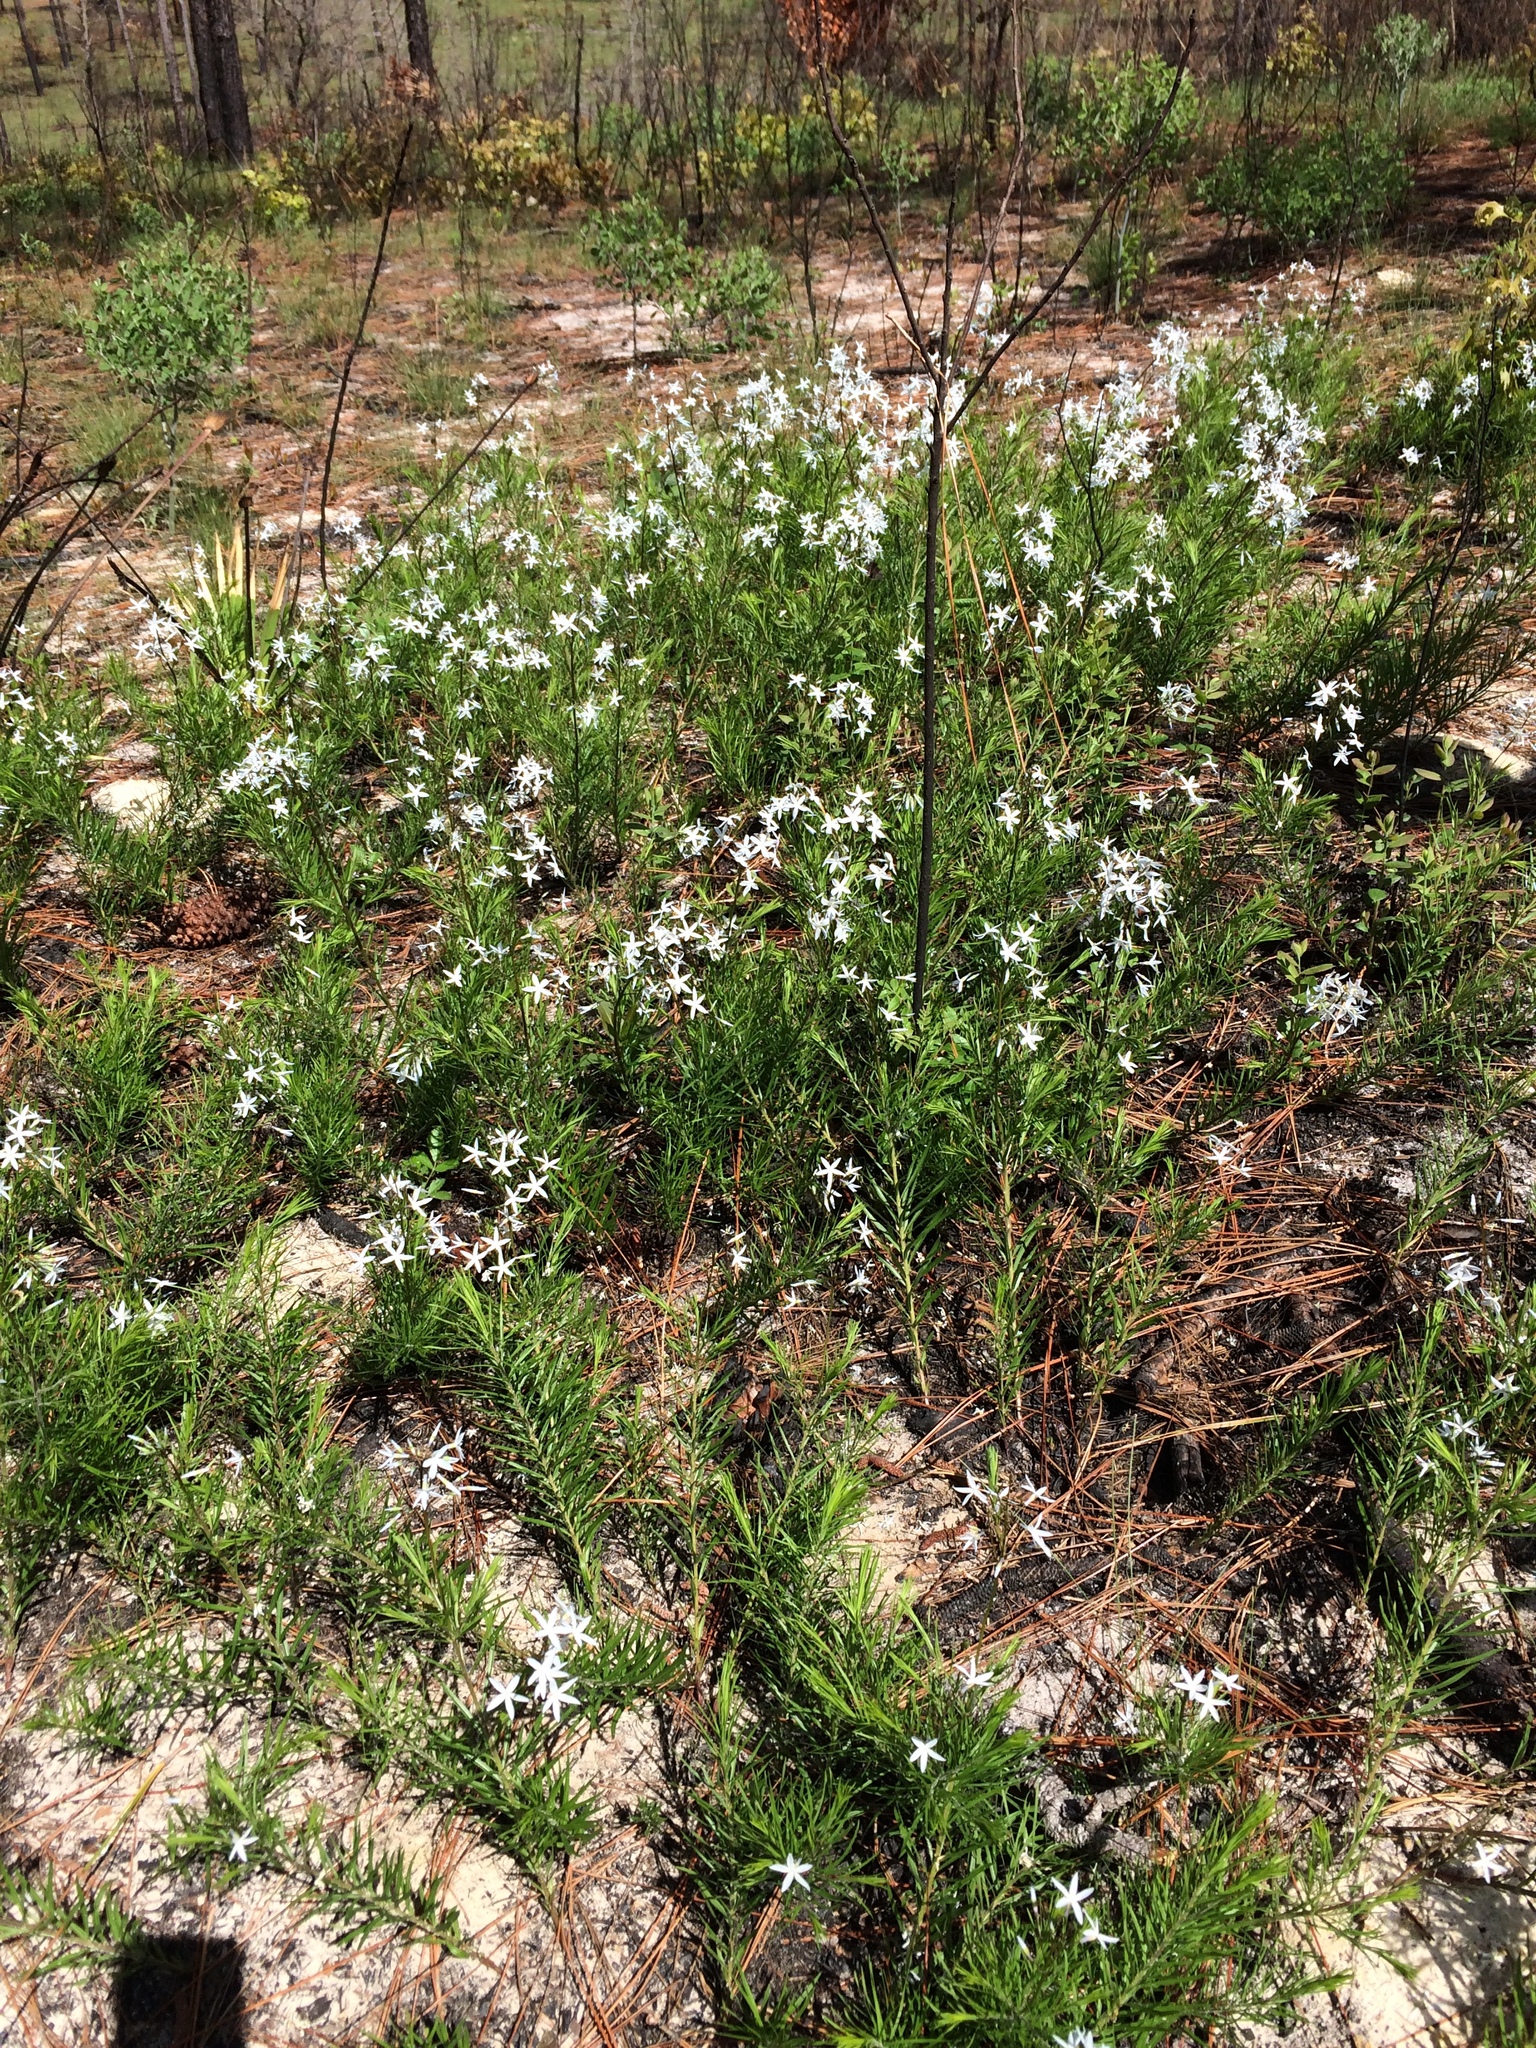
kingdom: Plantae
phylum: Tracheophyta
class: Magnoliopsida
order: Gentianales
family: Apocynaceae
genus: Amsonia
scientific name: Amsonia ciliata
